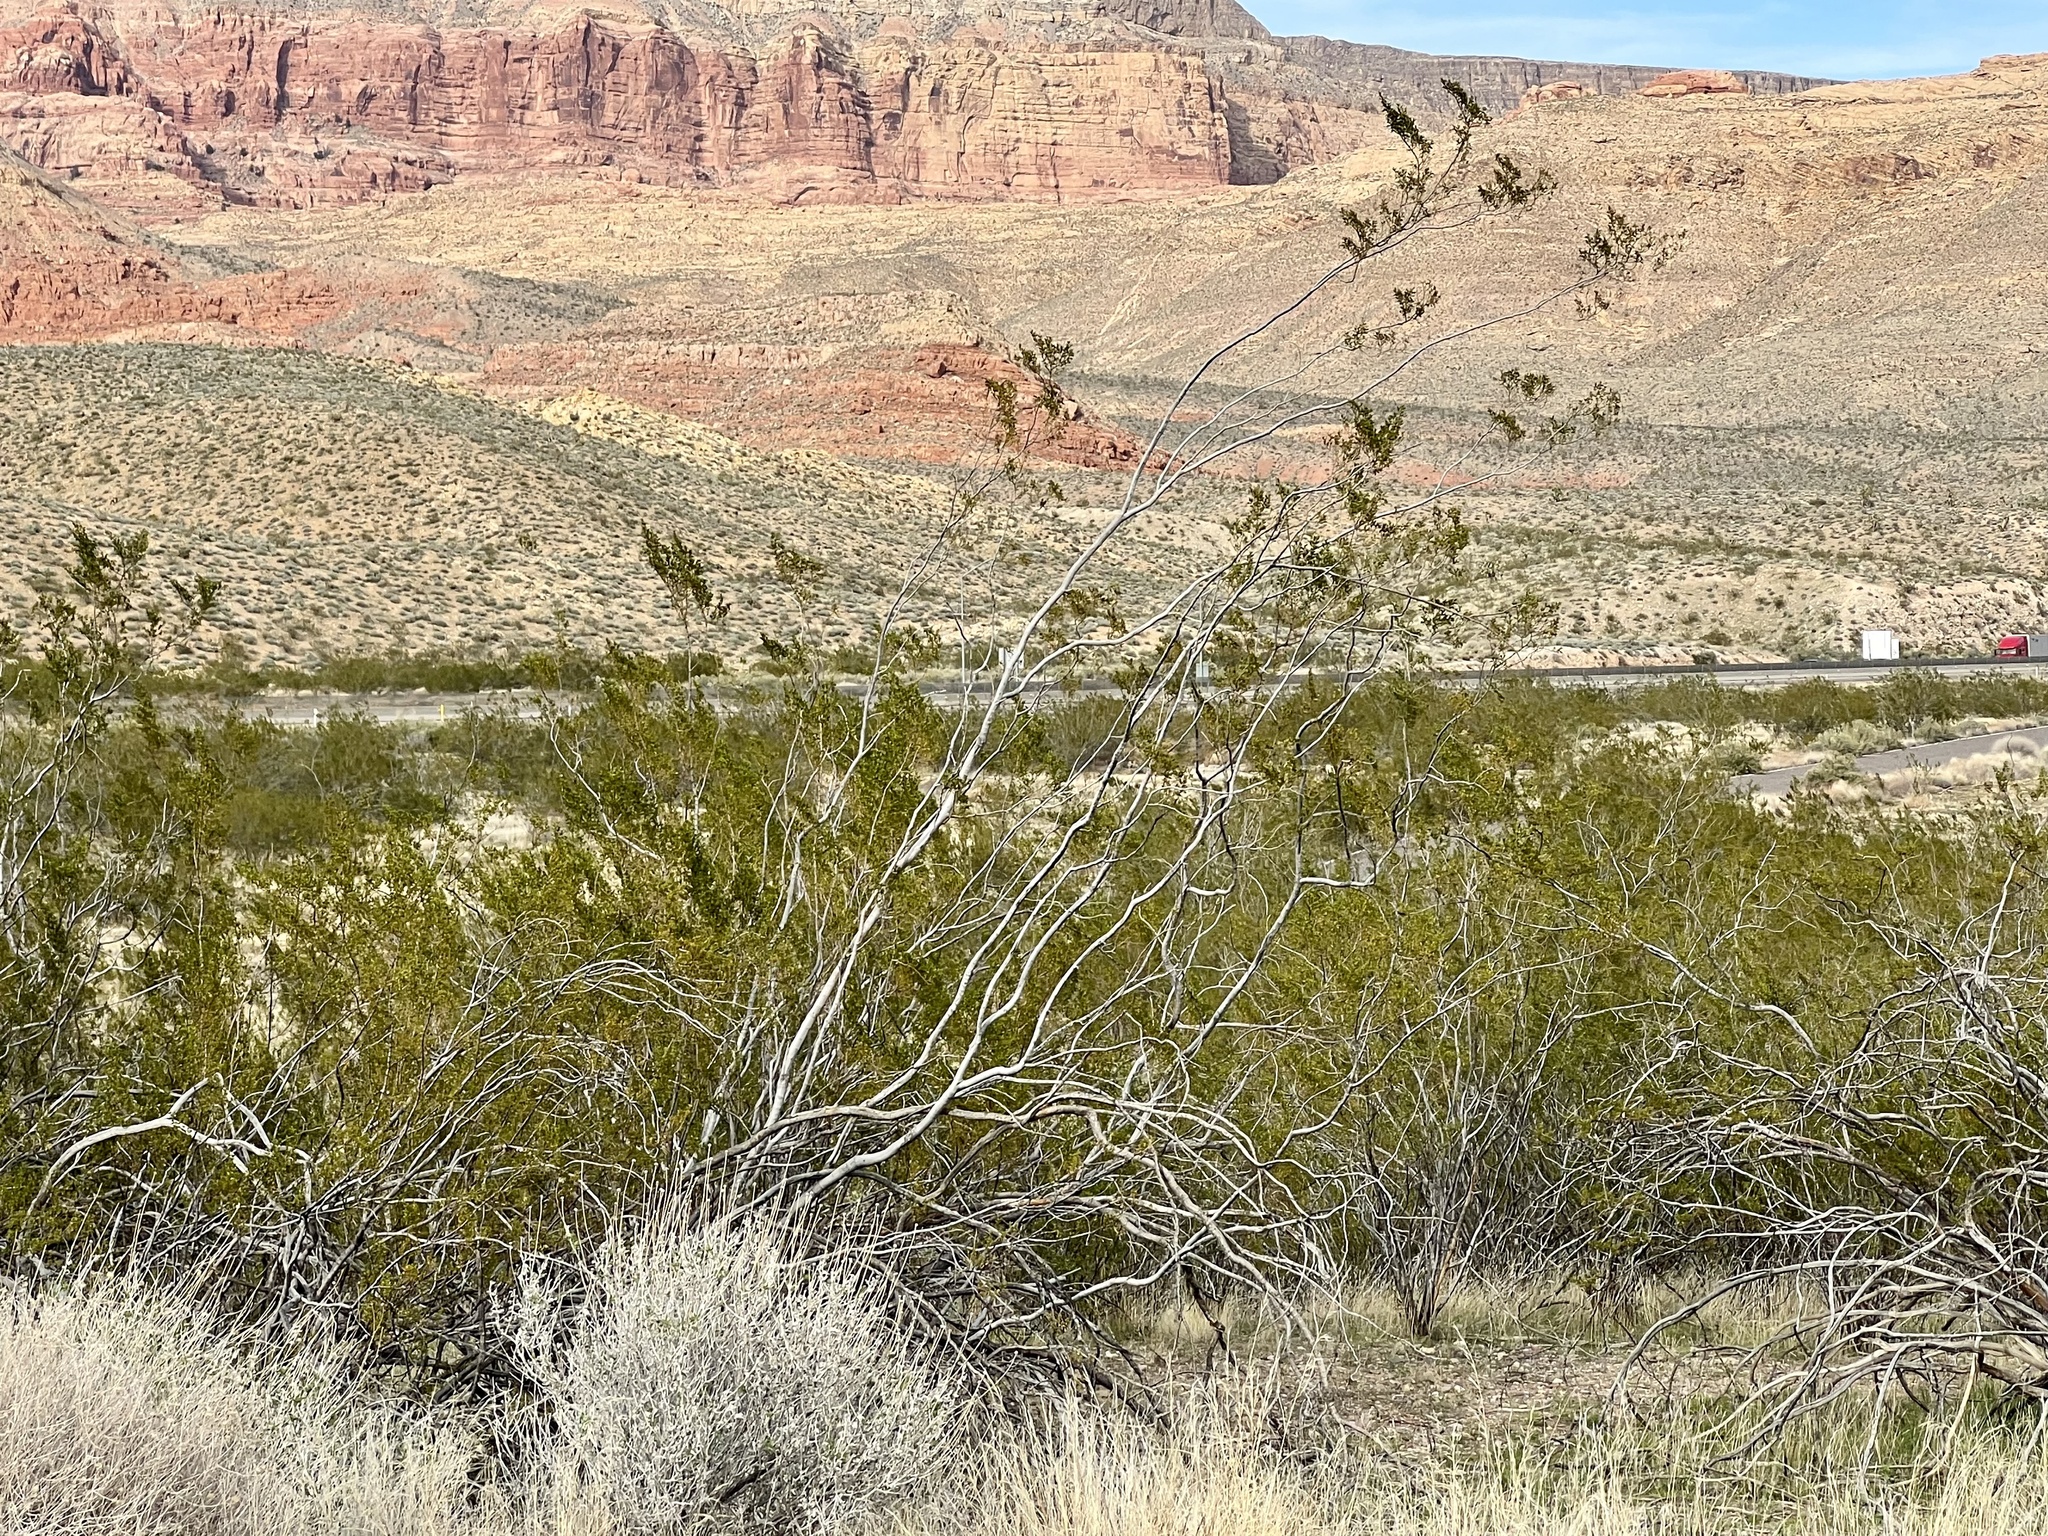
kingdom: Plantae
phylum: Tracheophyta
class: Magnoliopsida
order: Zygophyllales
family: Zygophyllaceae
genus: Larrea
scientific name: Larrea tridentata
